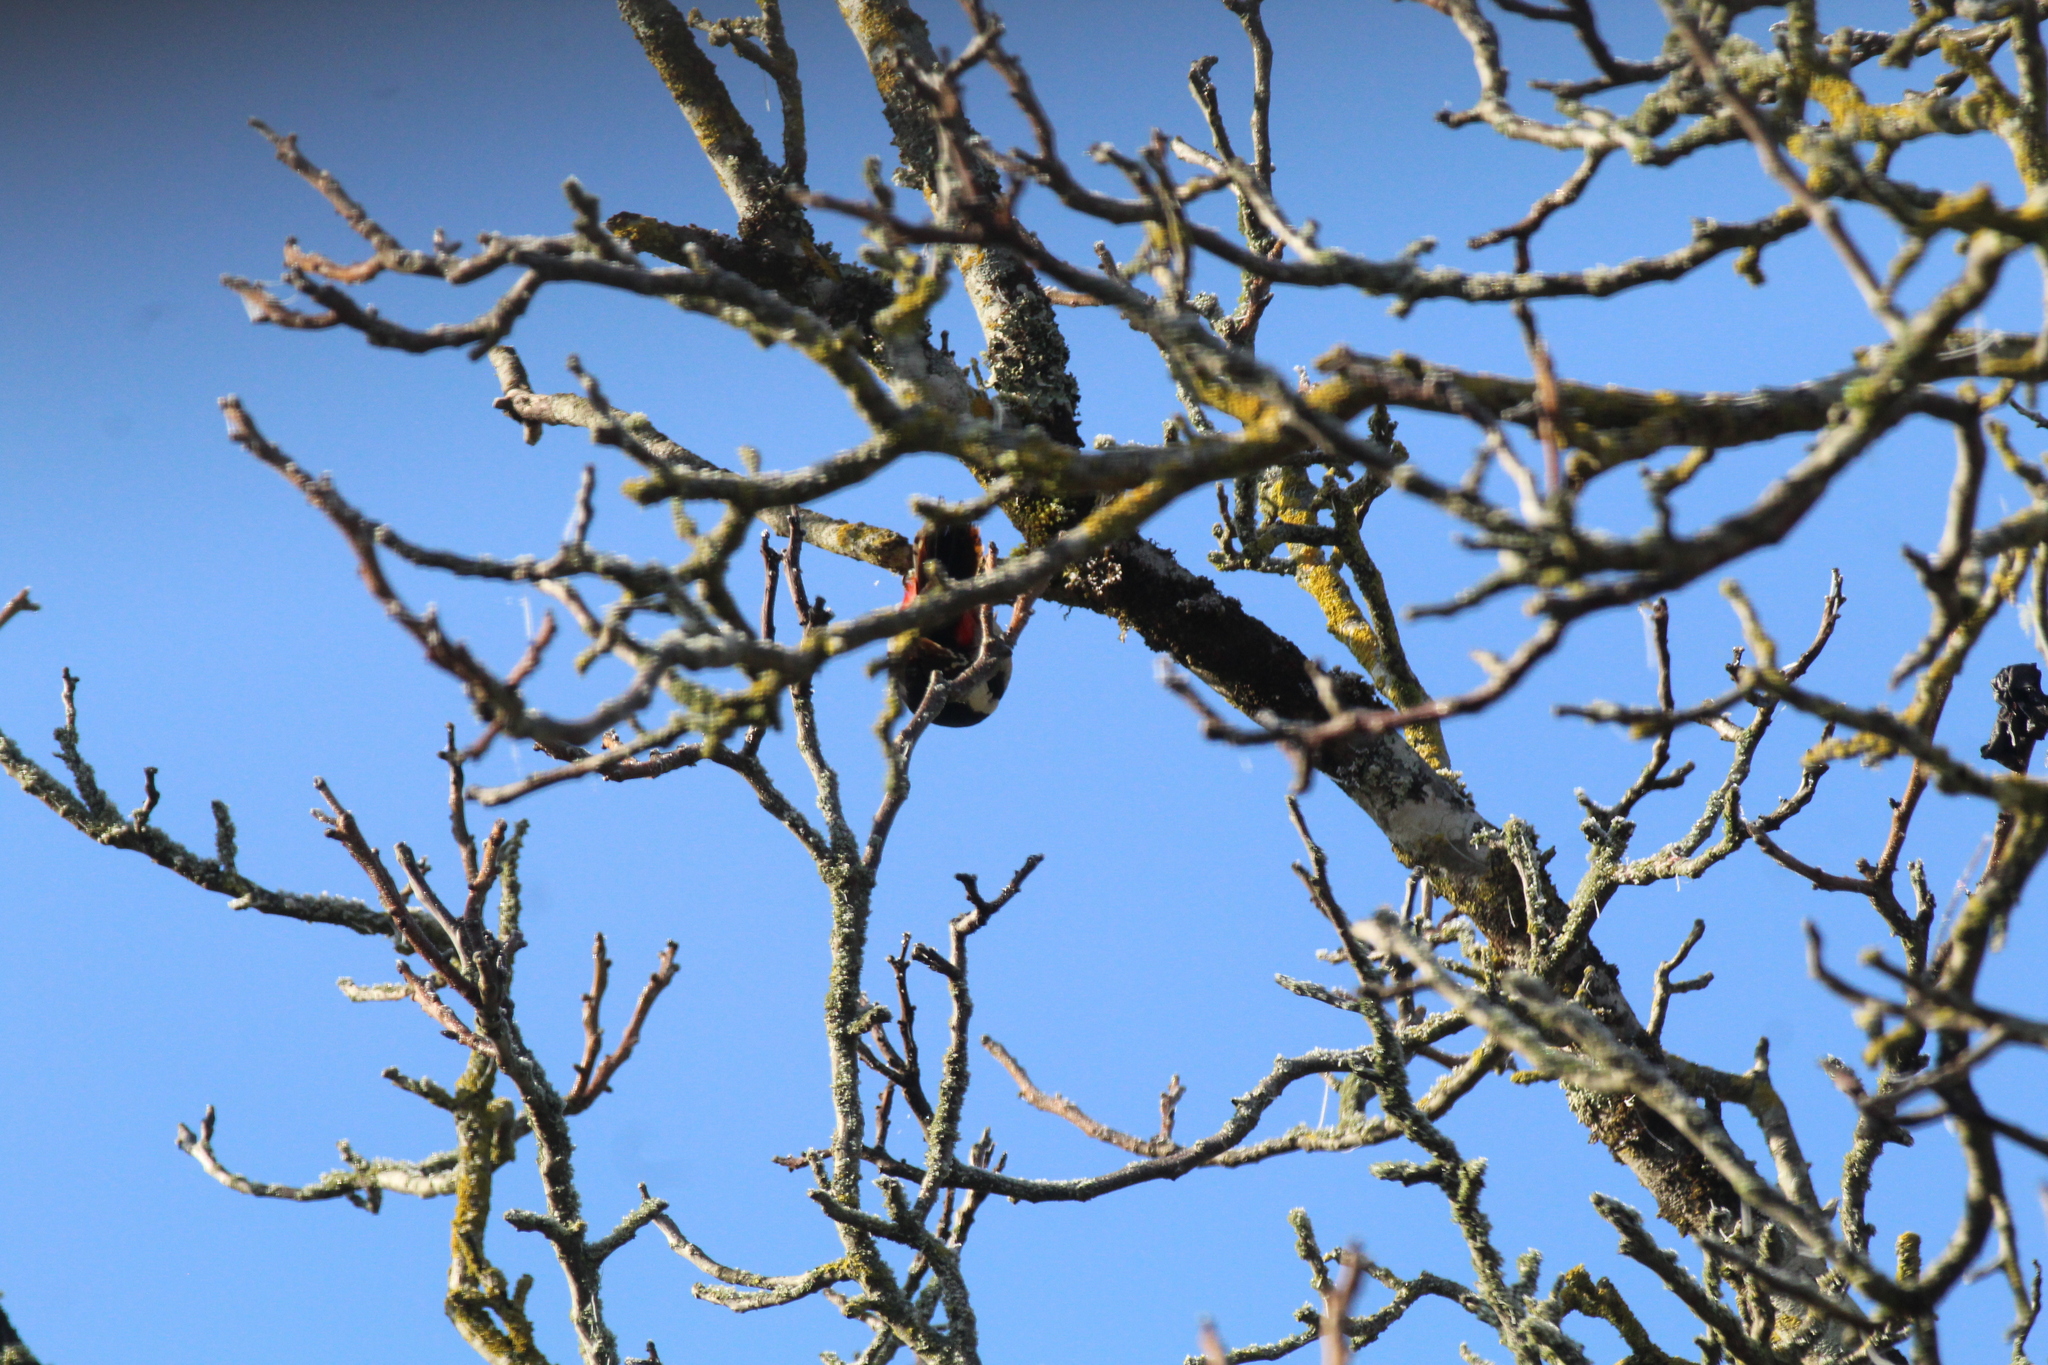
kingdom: Animalia
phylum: Chordata
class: Aves
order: Piciformes
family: Picidae
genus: Dendrocopos
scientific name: Dendrocopos major
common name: Great spotted woodpecker
